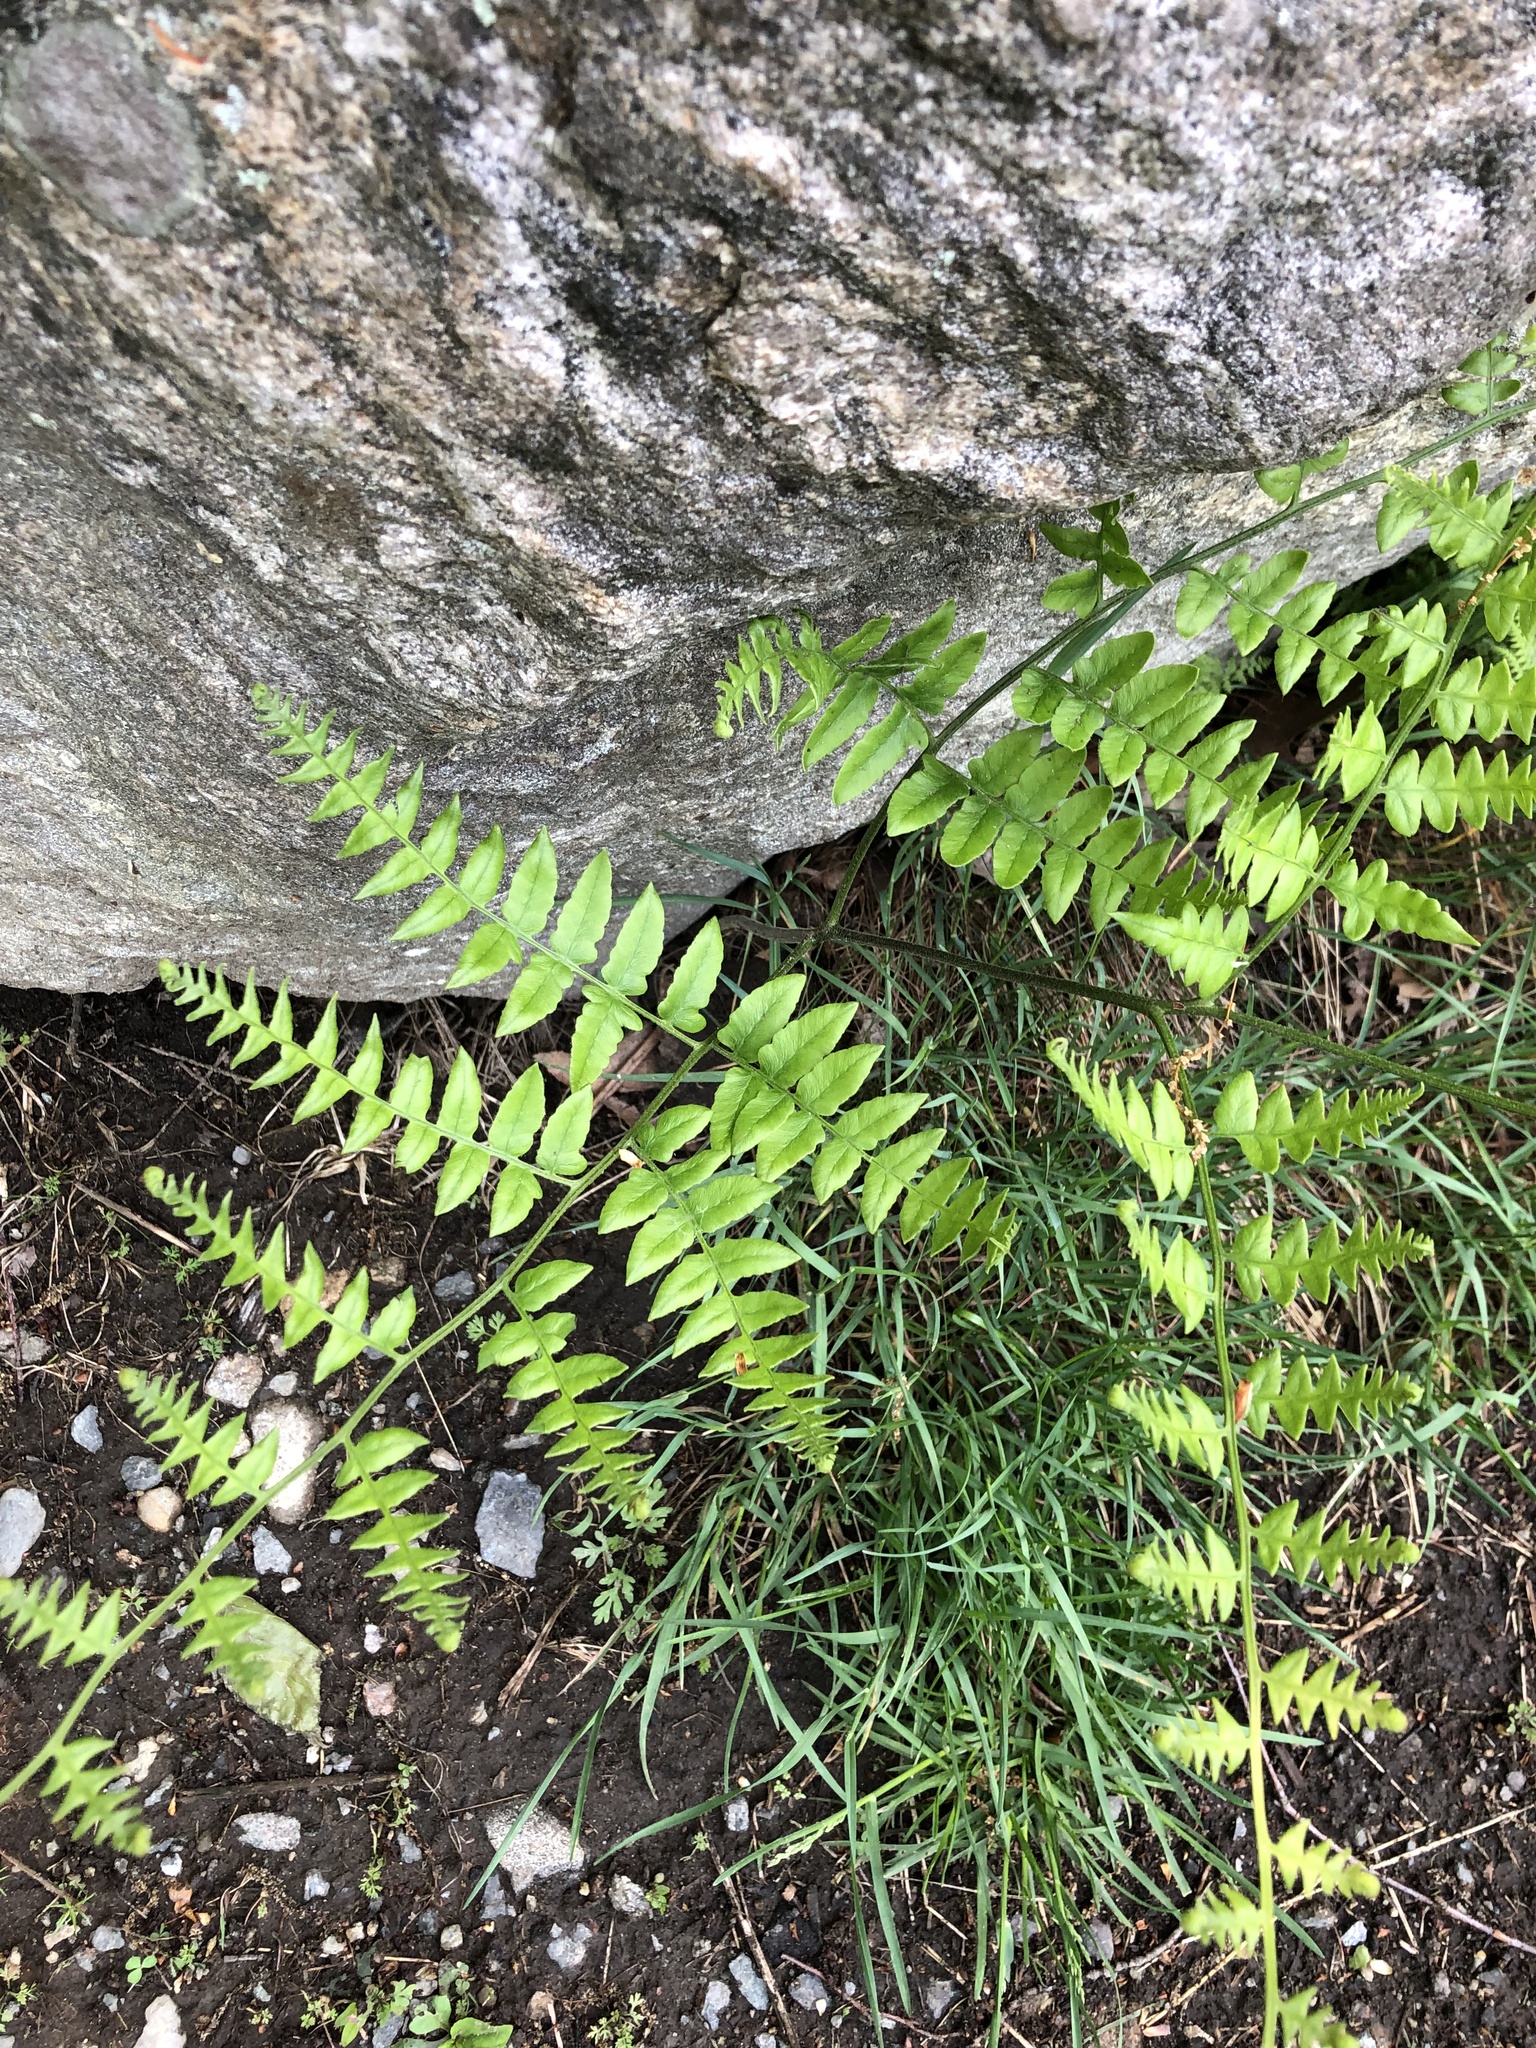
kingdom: Plantae
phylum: Tracheophyta
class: Polypodiopsida
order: Polypodiales
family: Dennstaedtiaceae
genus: Pteridium
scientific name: Pteridium aquilinum
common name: Bracken
